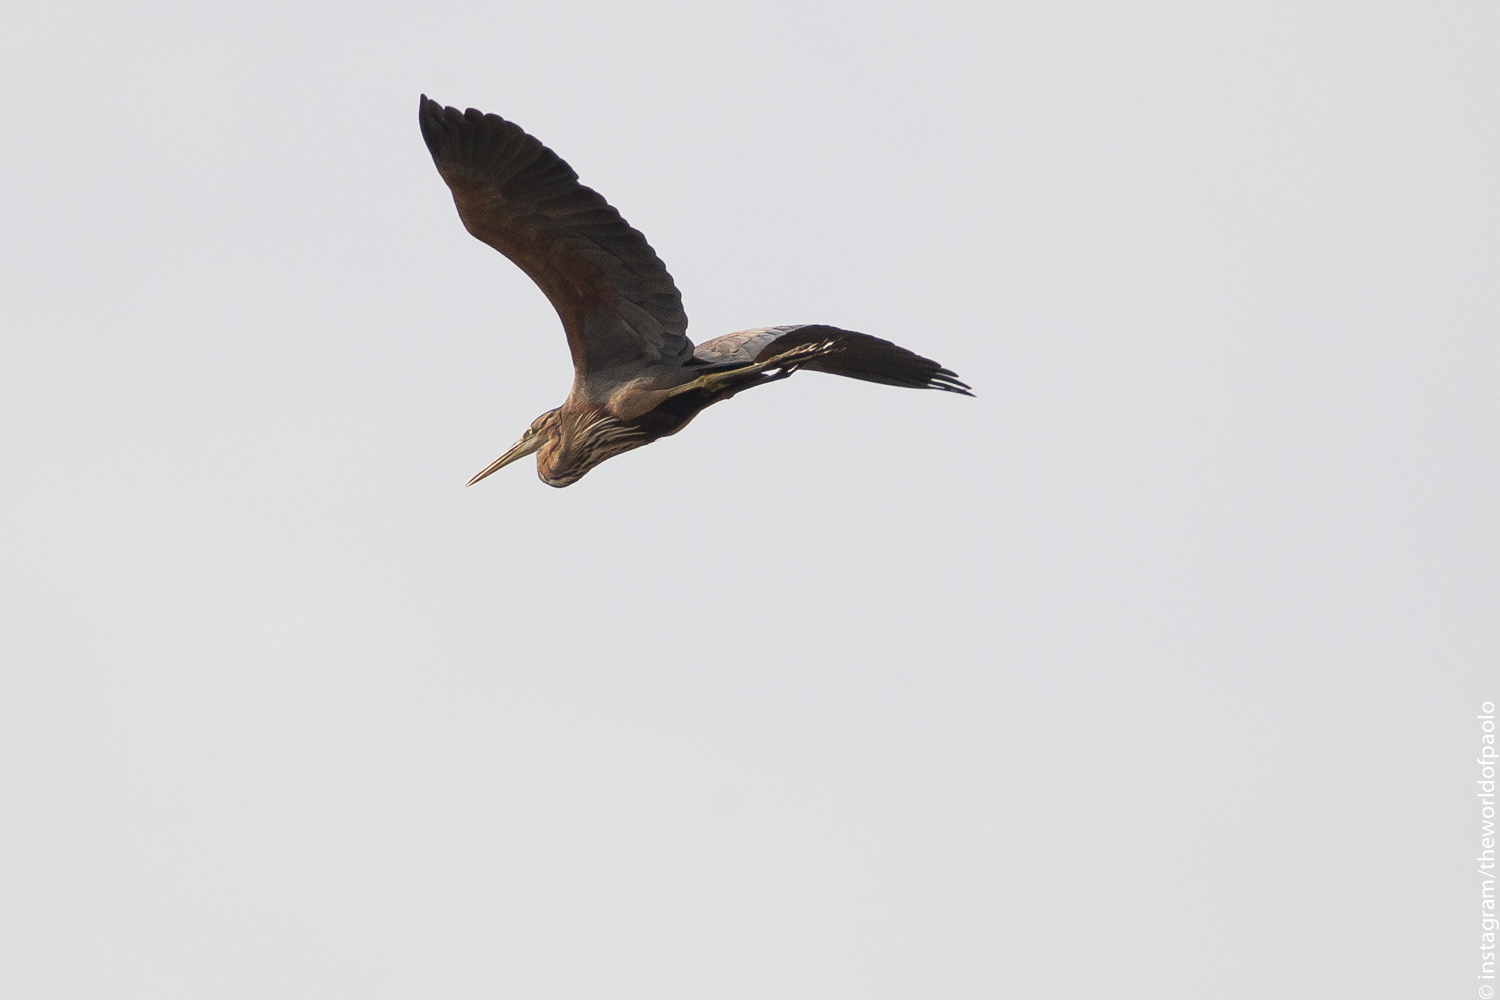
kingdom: Animalia
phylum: Chordata
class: Aves
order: Pelecaniformes
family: Ardeidae
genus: Ardea
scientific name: Ardea purpurea
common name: Purple heron
